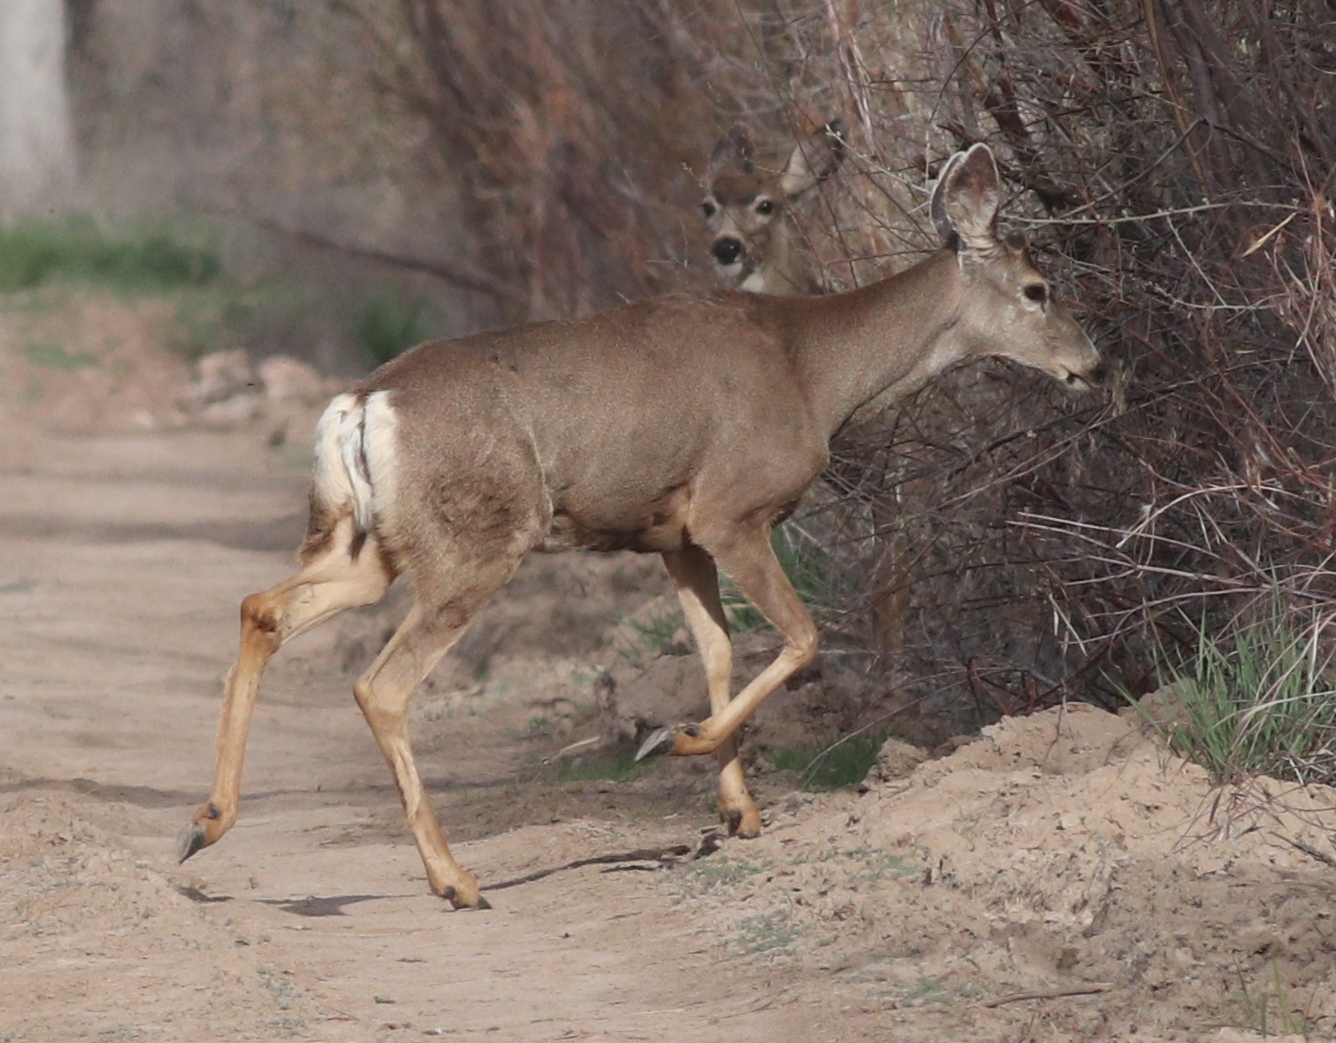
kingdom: Animalia
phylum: Chordata
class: Mammalia
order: Artiodactyla
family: Cervidae
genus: Odocoileus
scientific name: Odocoileus hemionus
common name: Mule deer
